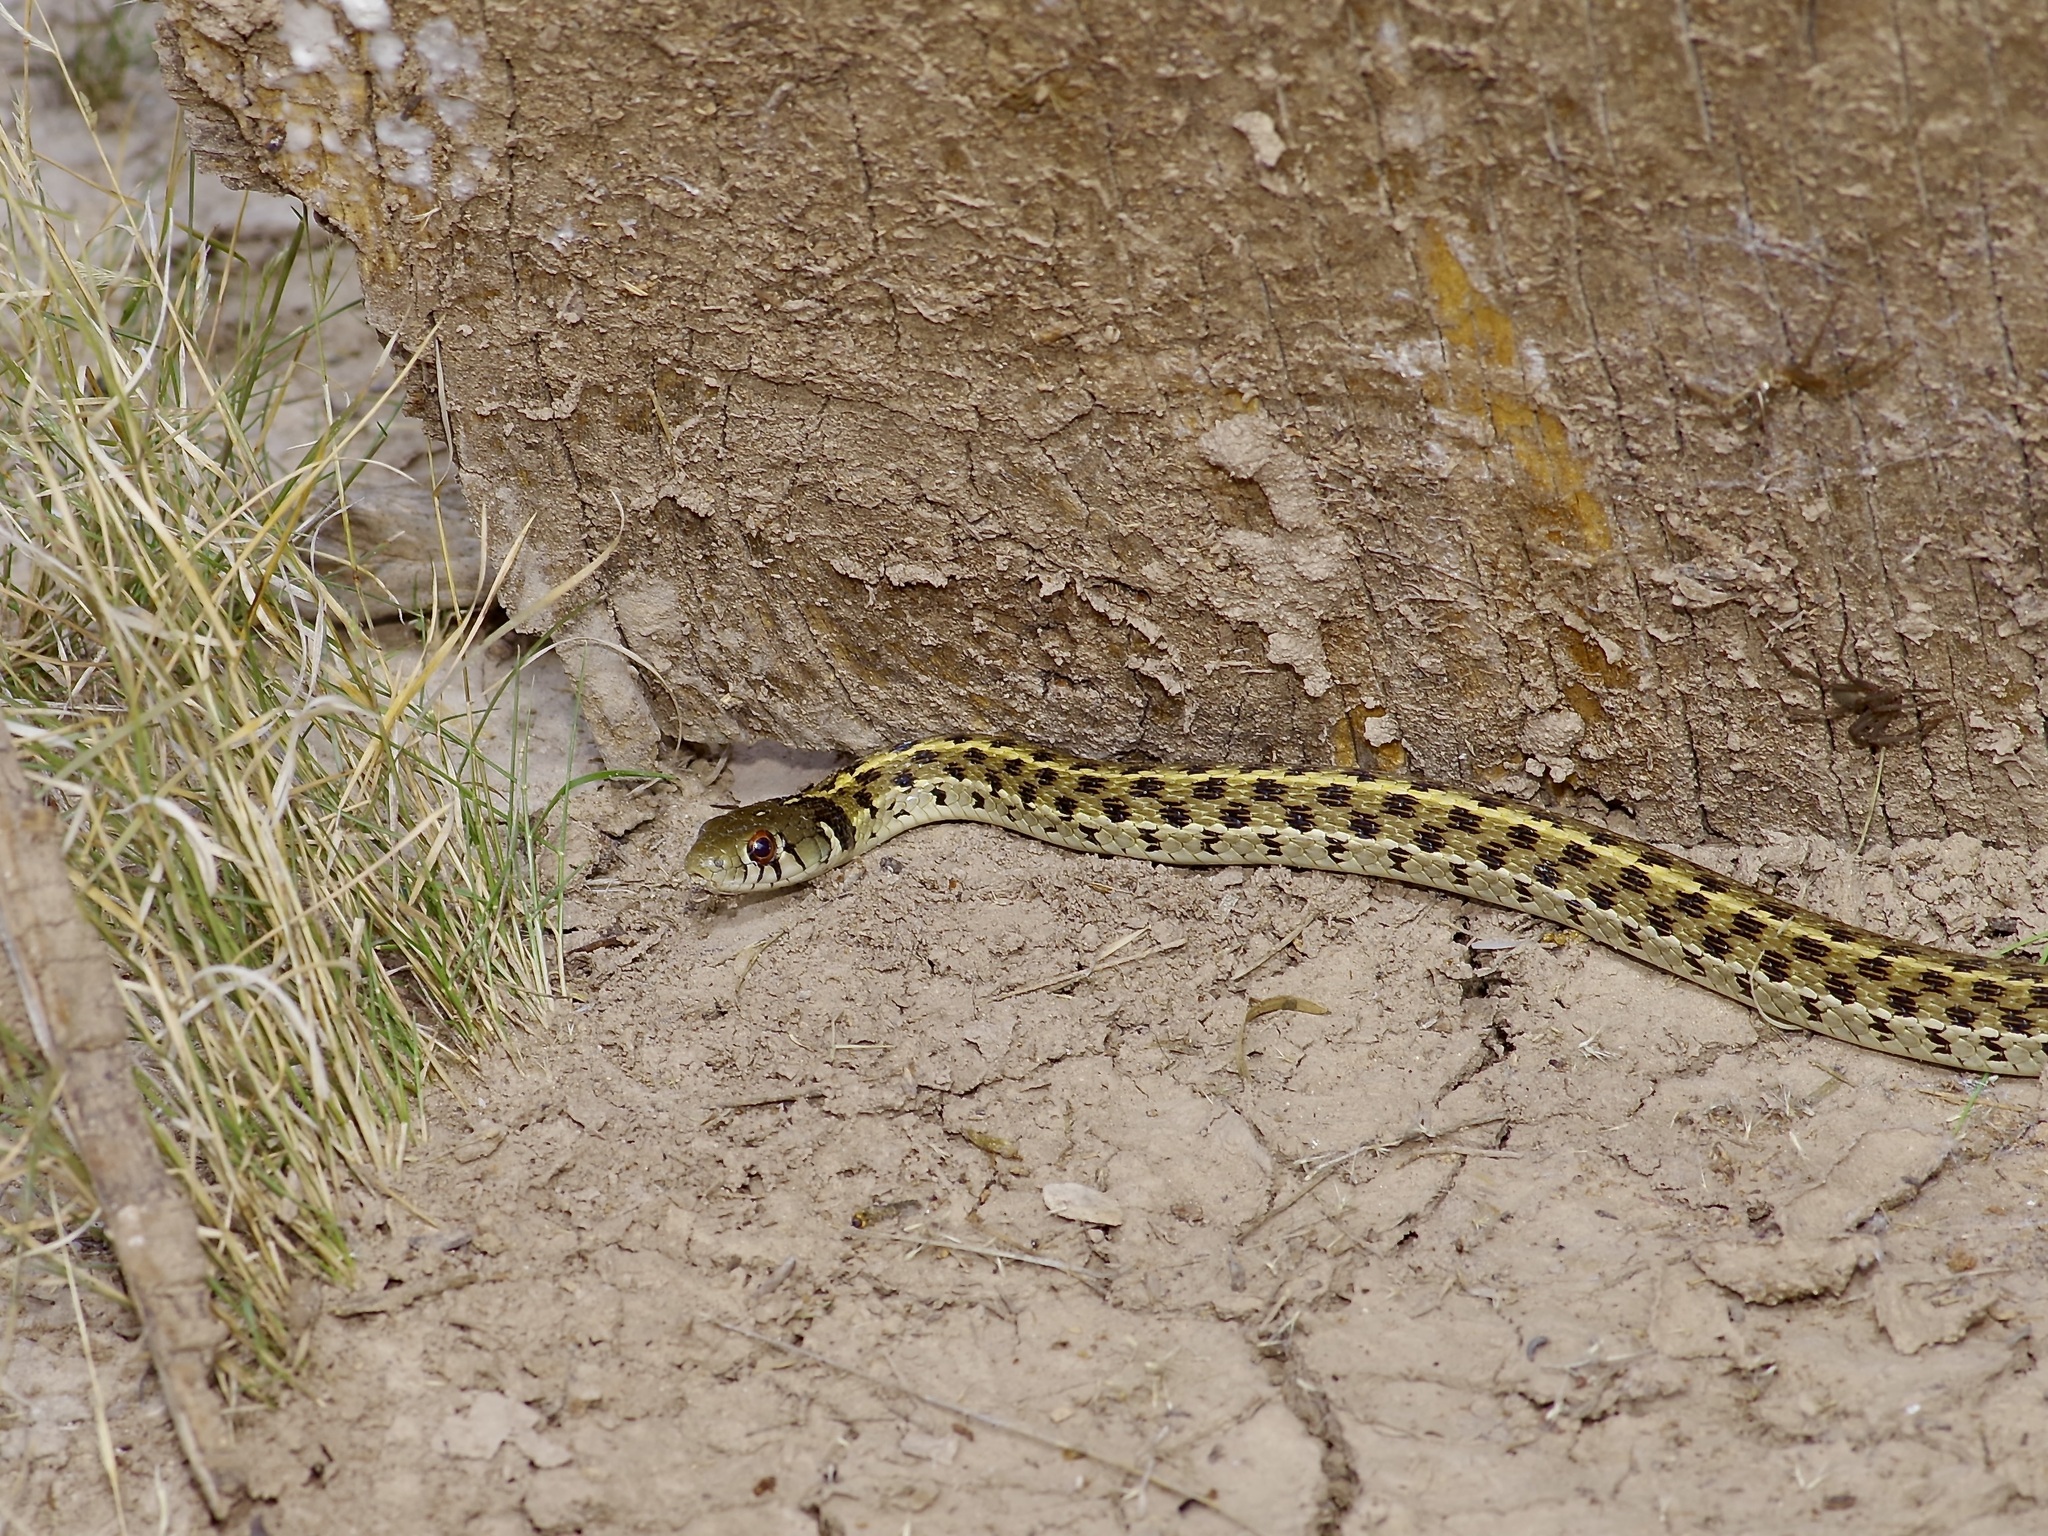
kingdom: Animalia
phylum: Chordata
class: Squamata
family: Colubridae
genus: Thamnophis
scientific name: Thamnophis marcianus
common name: Checkered garter snake
